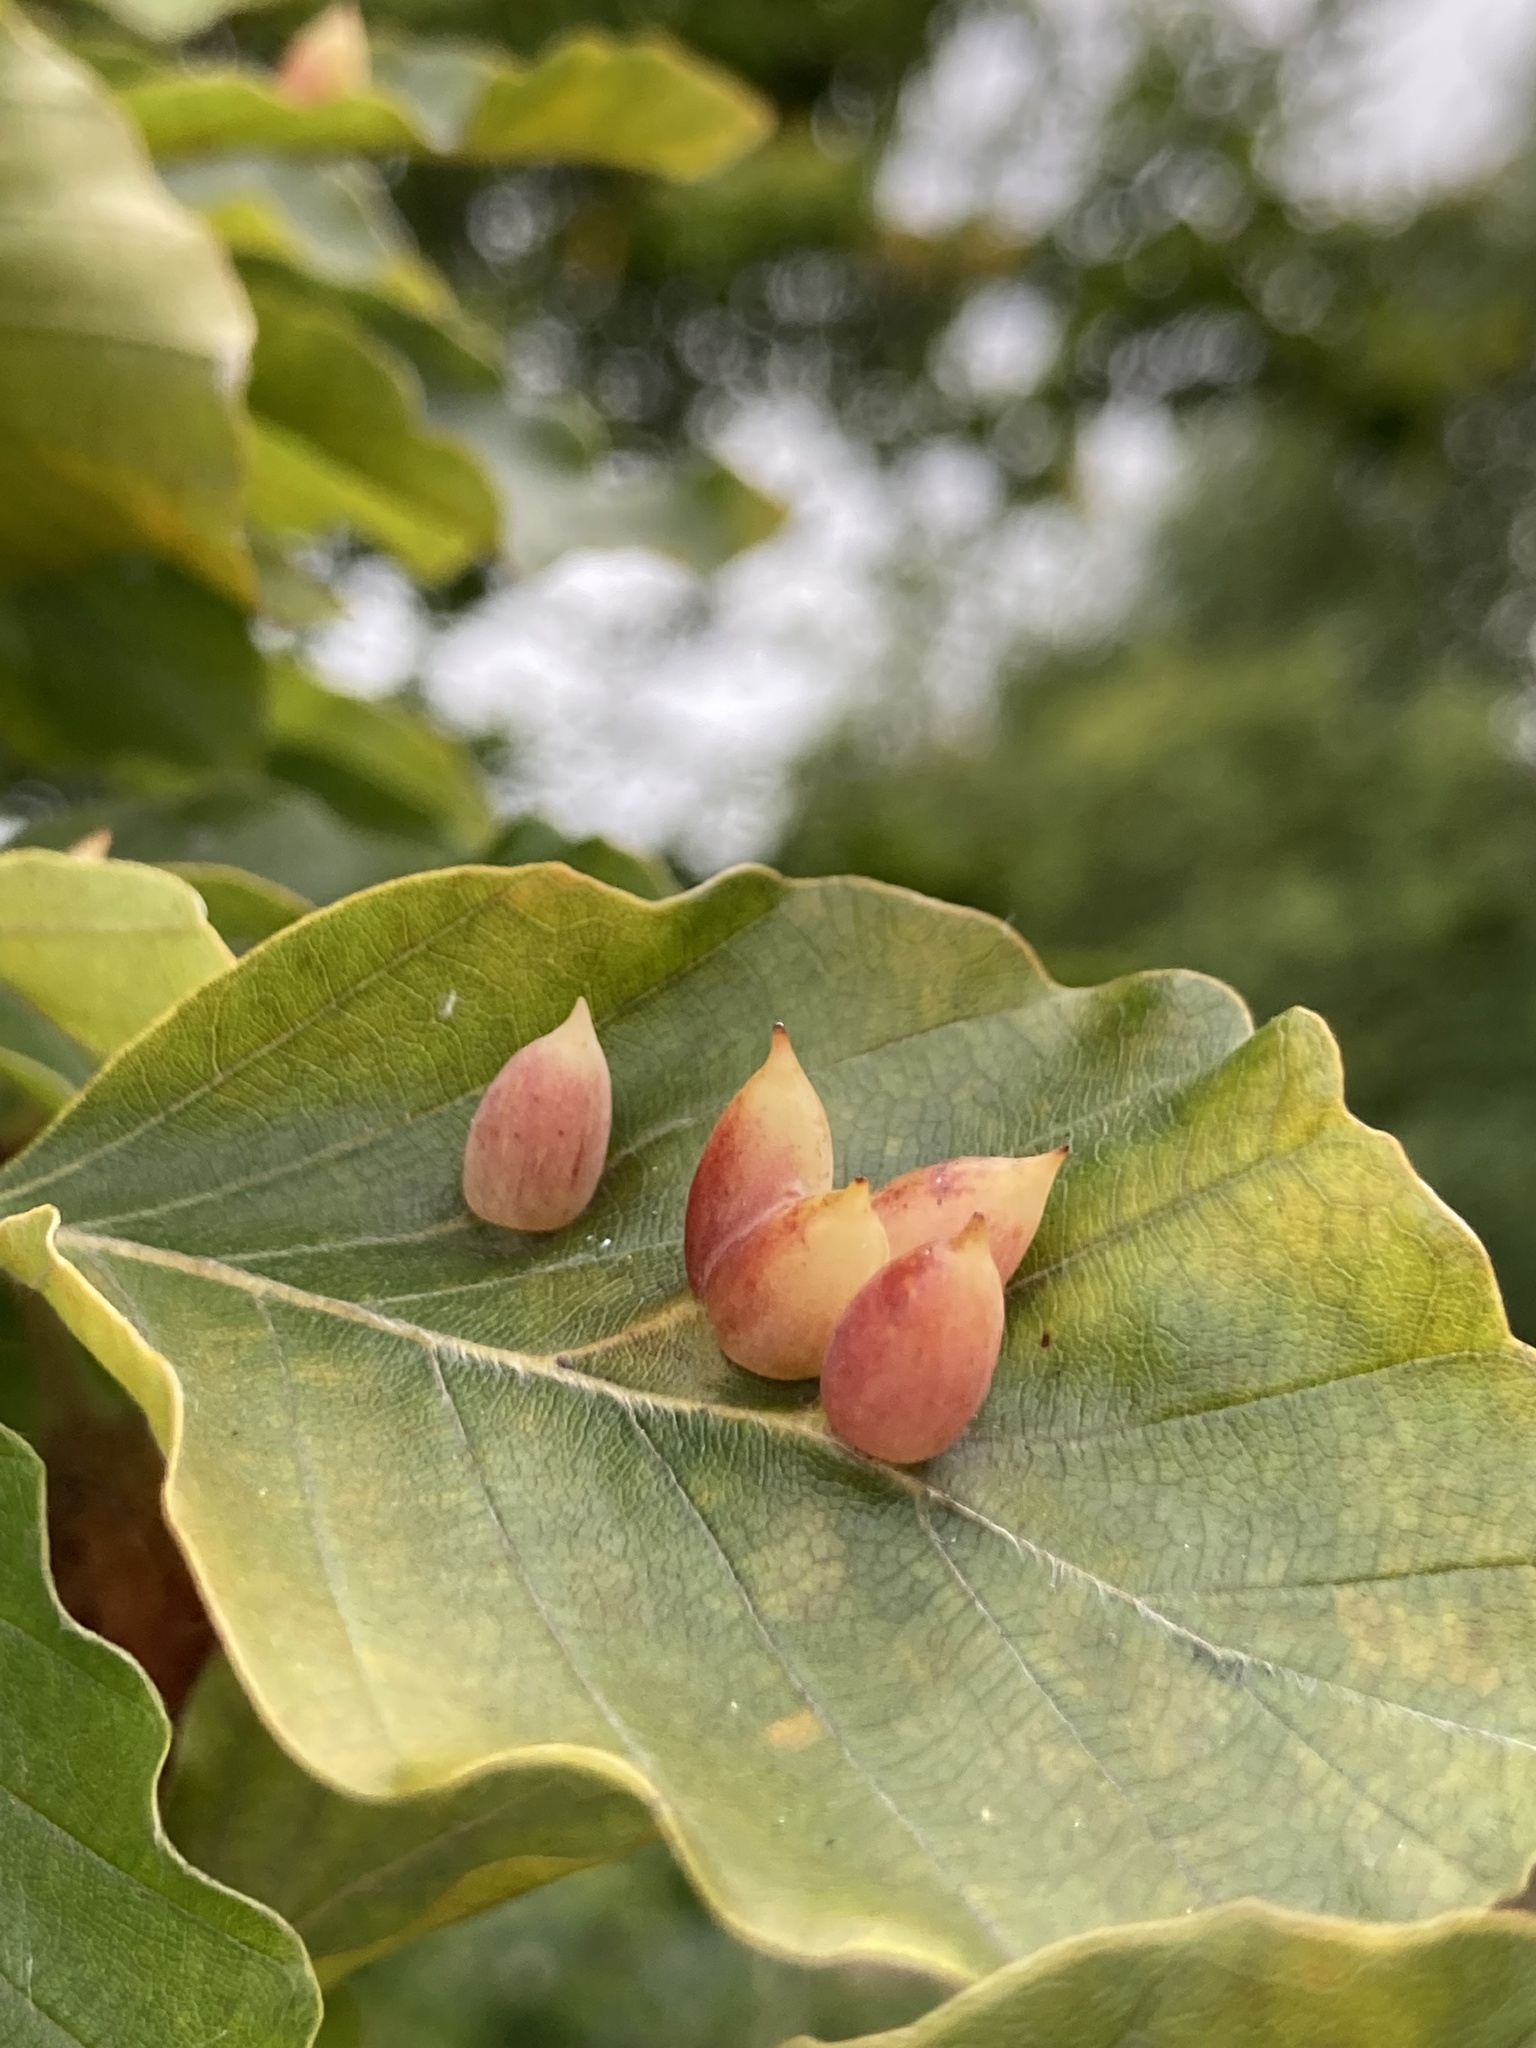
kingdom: Animalia
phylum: Arthropoda
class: Insecta
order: Diptera
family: Cecidomyiidae
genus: Mikiola
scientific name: Mikiola fagi
